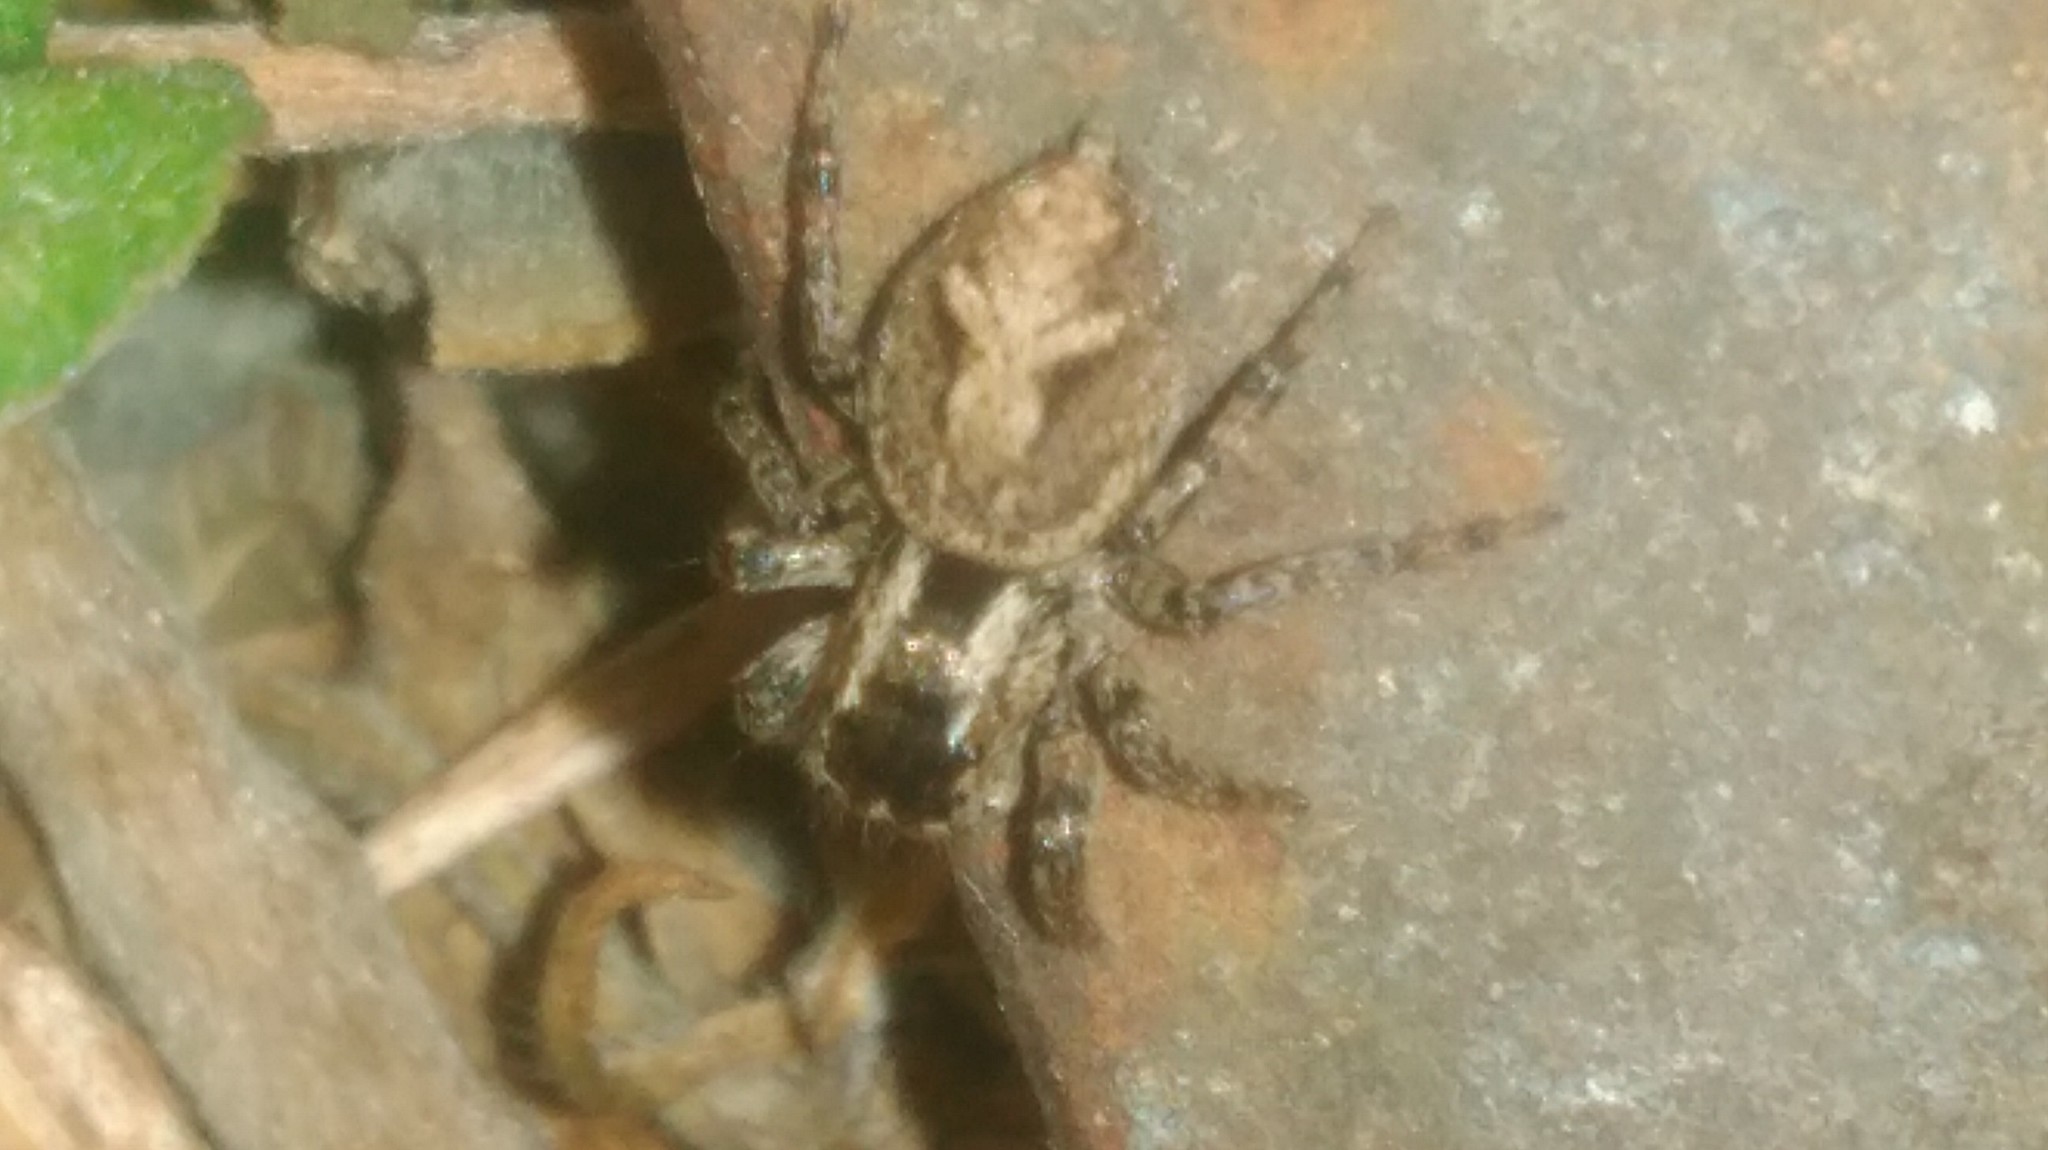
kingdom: Animalia
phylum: Arthropoda
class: Arachnida
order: Araneae
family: Salticidae
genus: Aphirape
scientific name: Aphirape
